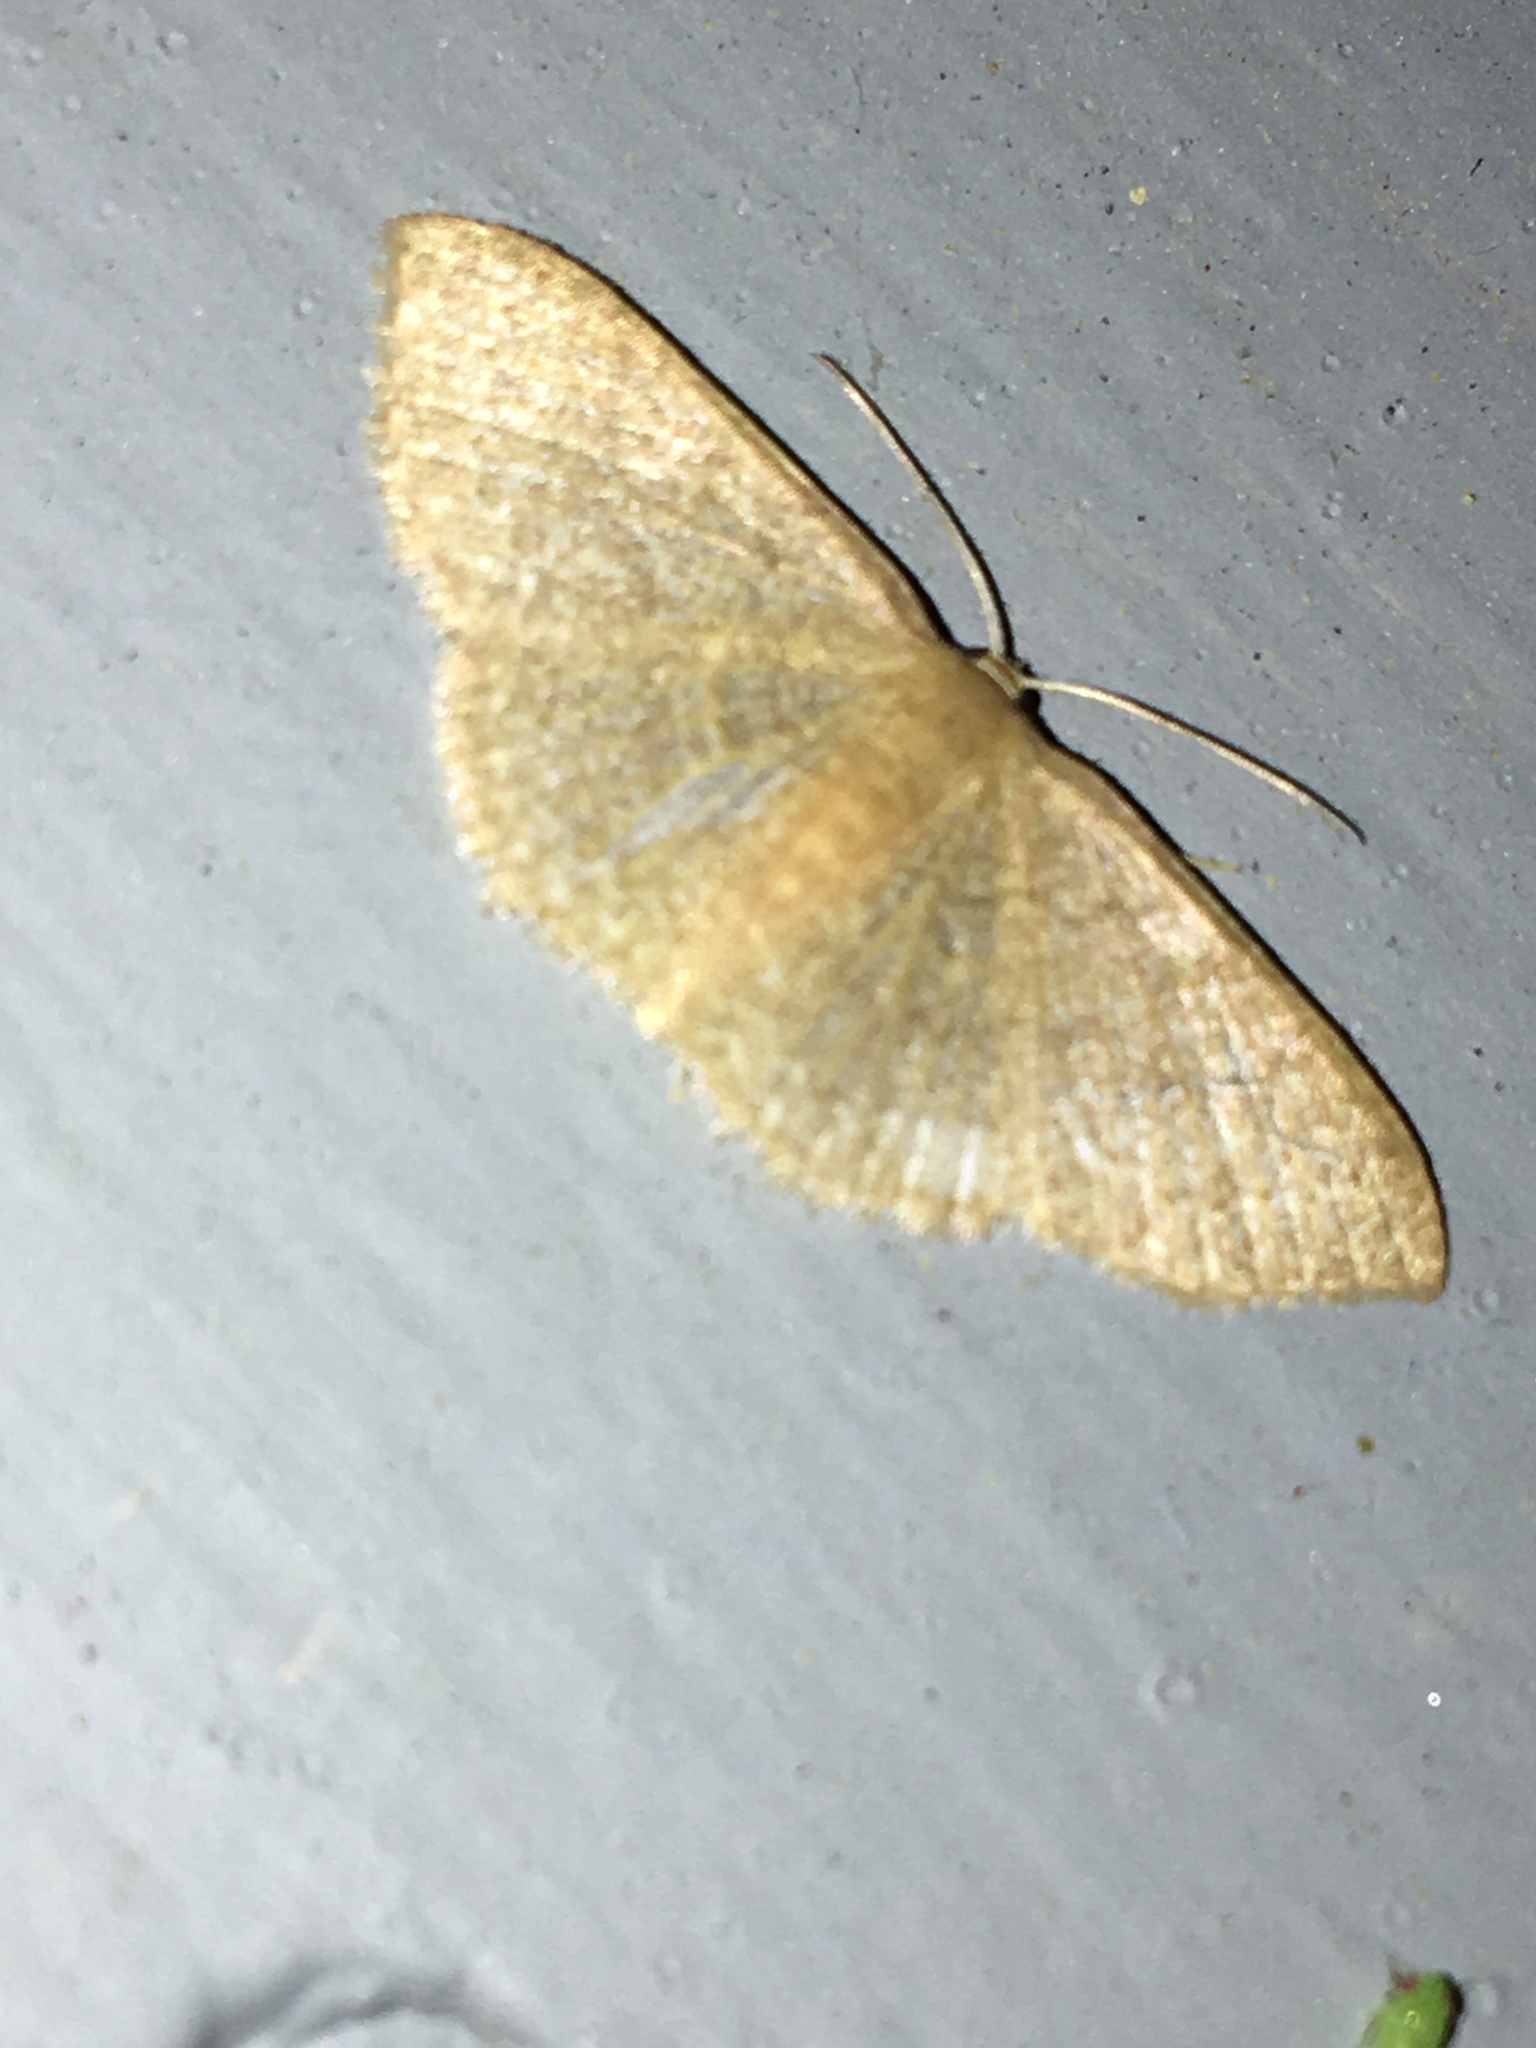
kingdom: Animalia
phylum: Arthropoda
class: Insecta
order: Lepidoptera
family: Geometridae
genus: Pleuroprucha
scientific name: Pleuroprucha insulsaria
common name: Common tan wave
